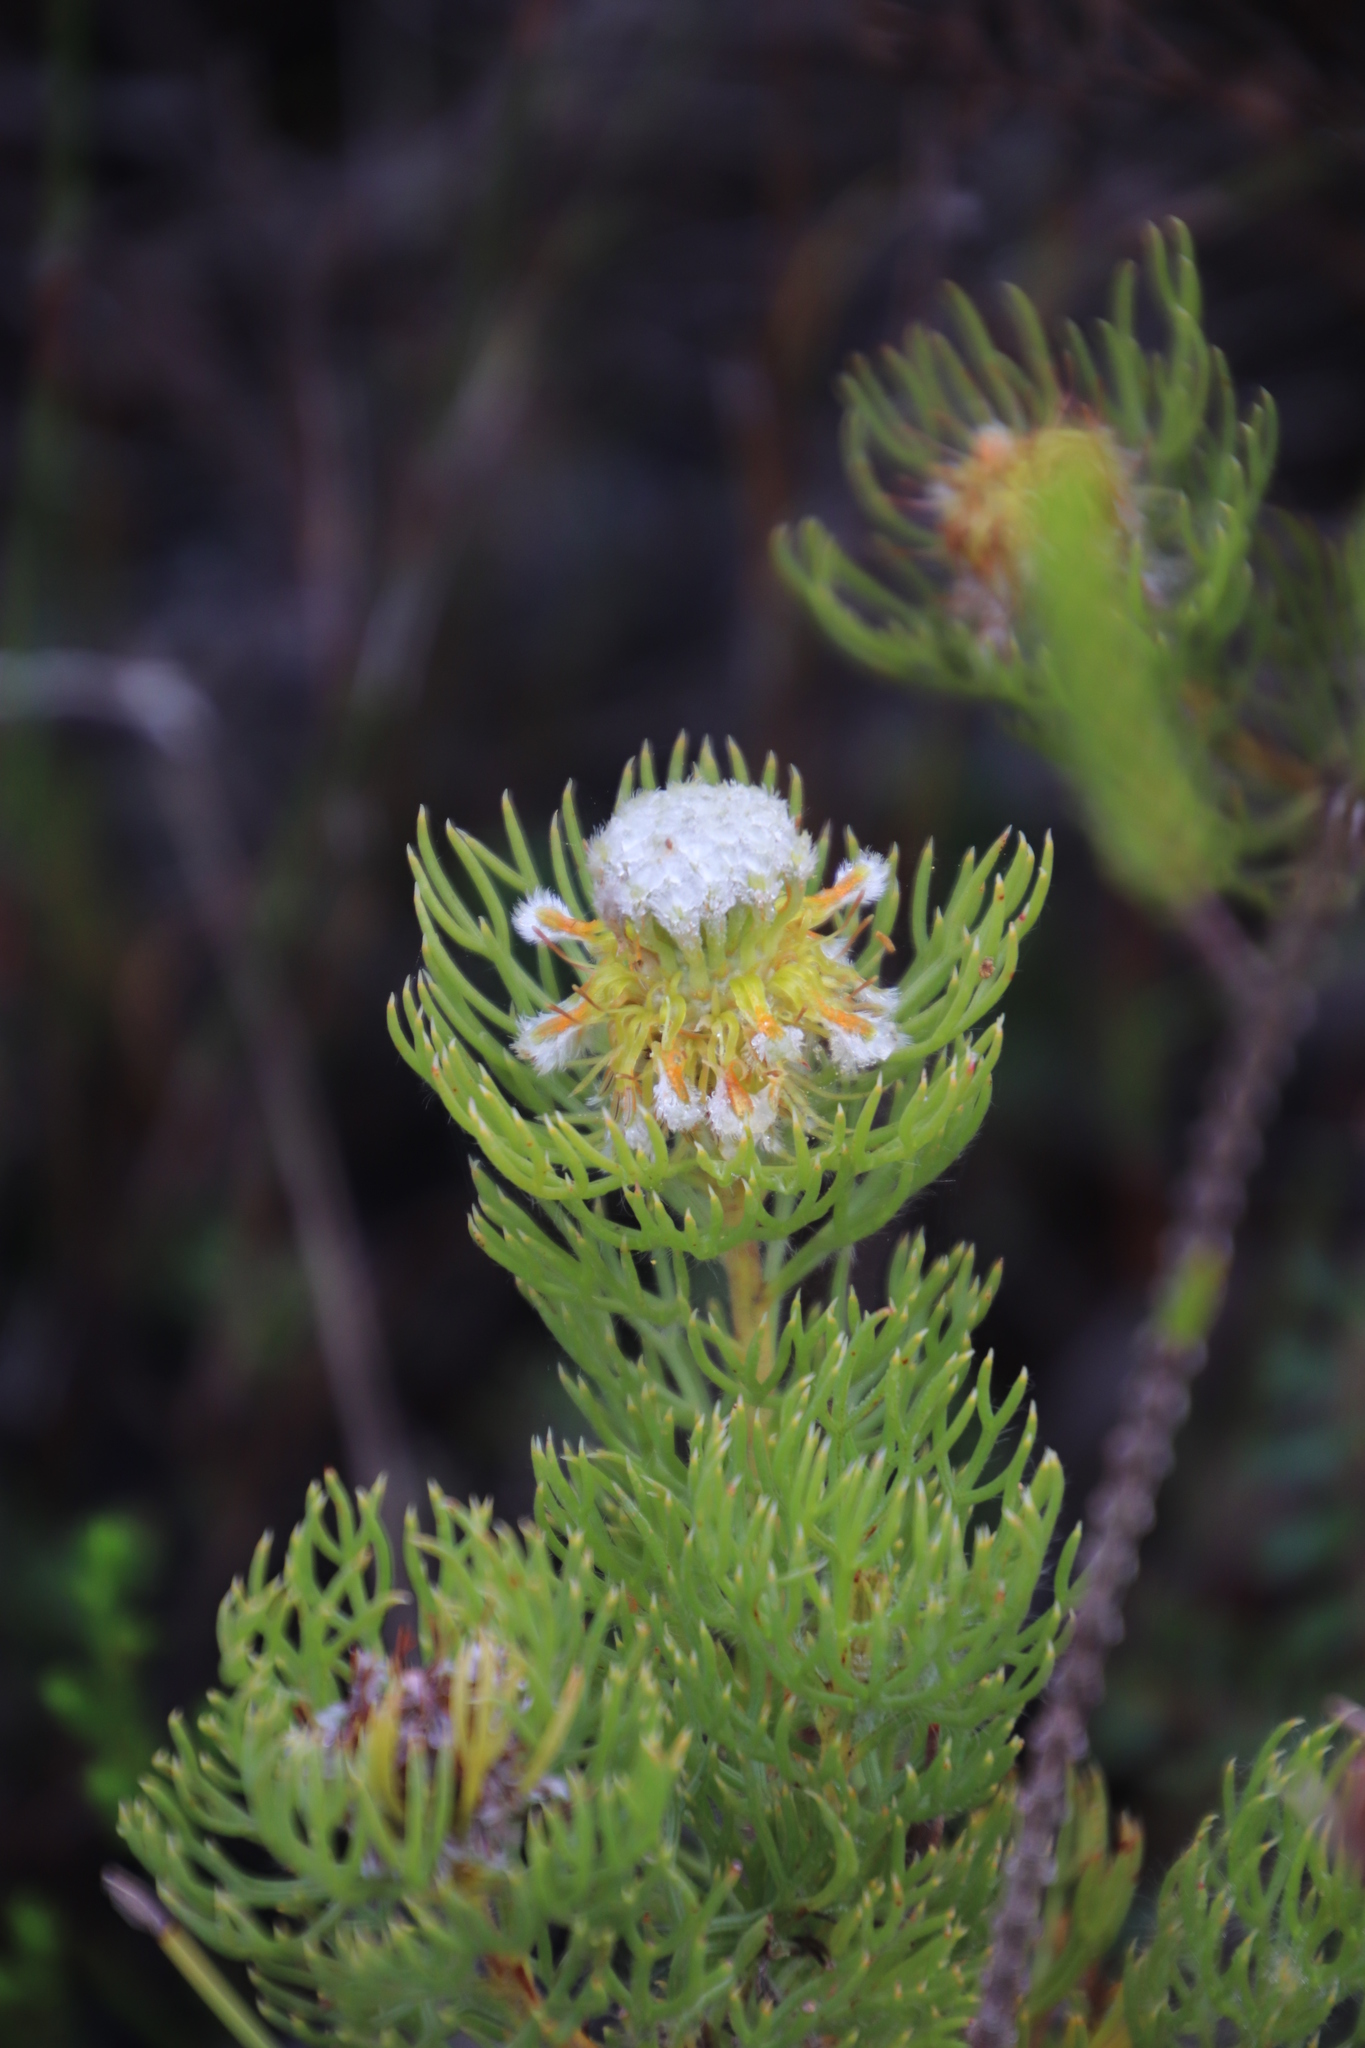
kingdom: Plantae
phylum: Tracheophyta
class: Magnoliopsida
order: Proteales
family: Proteaceae
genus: Serruria
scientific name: Serruria villosa
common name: Golden spiderhead
